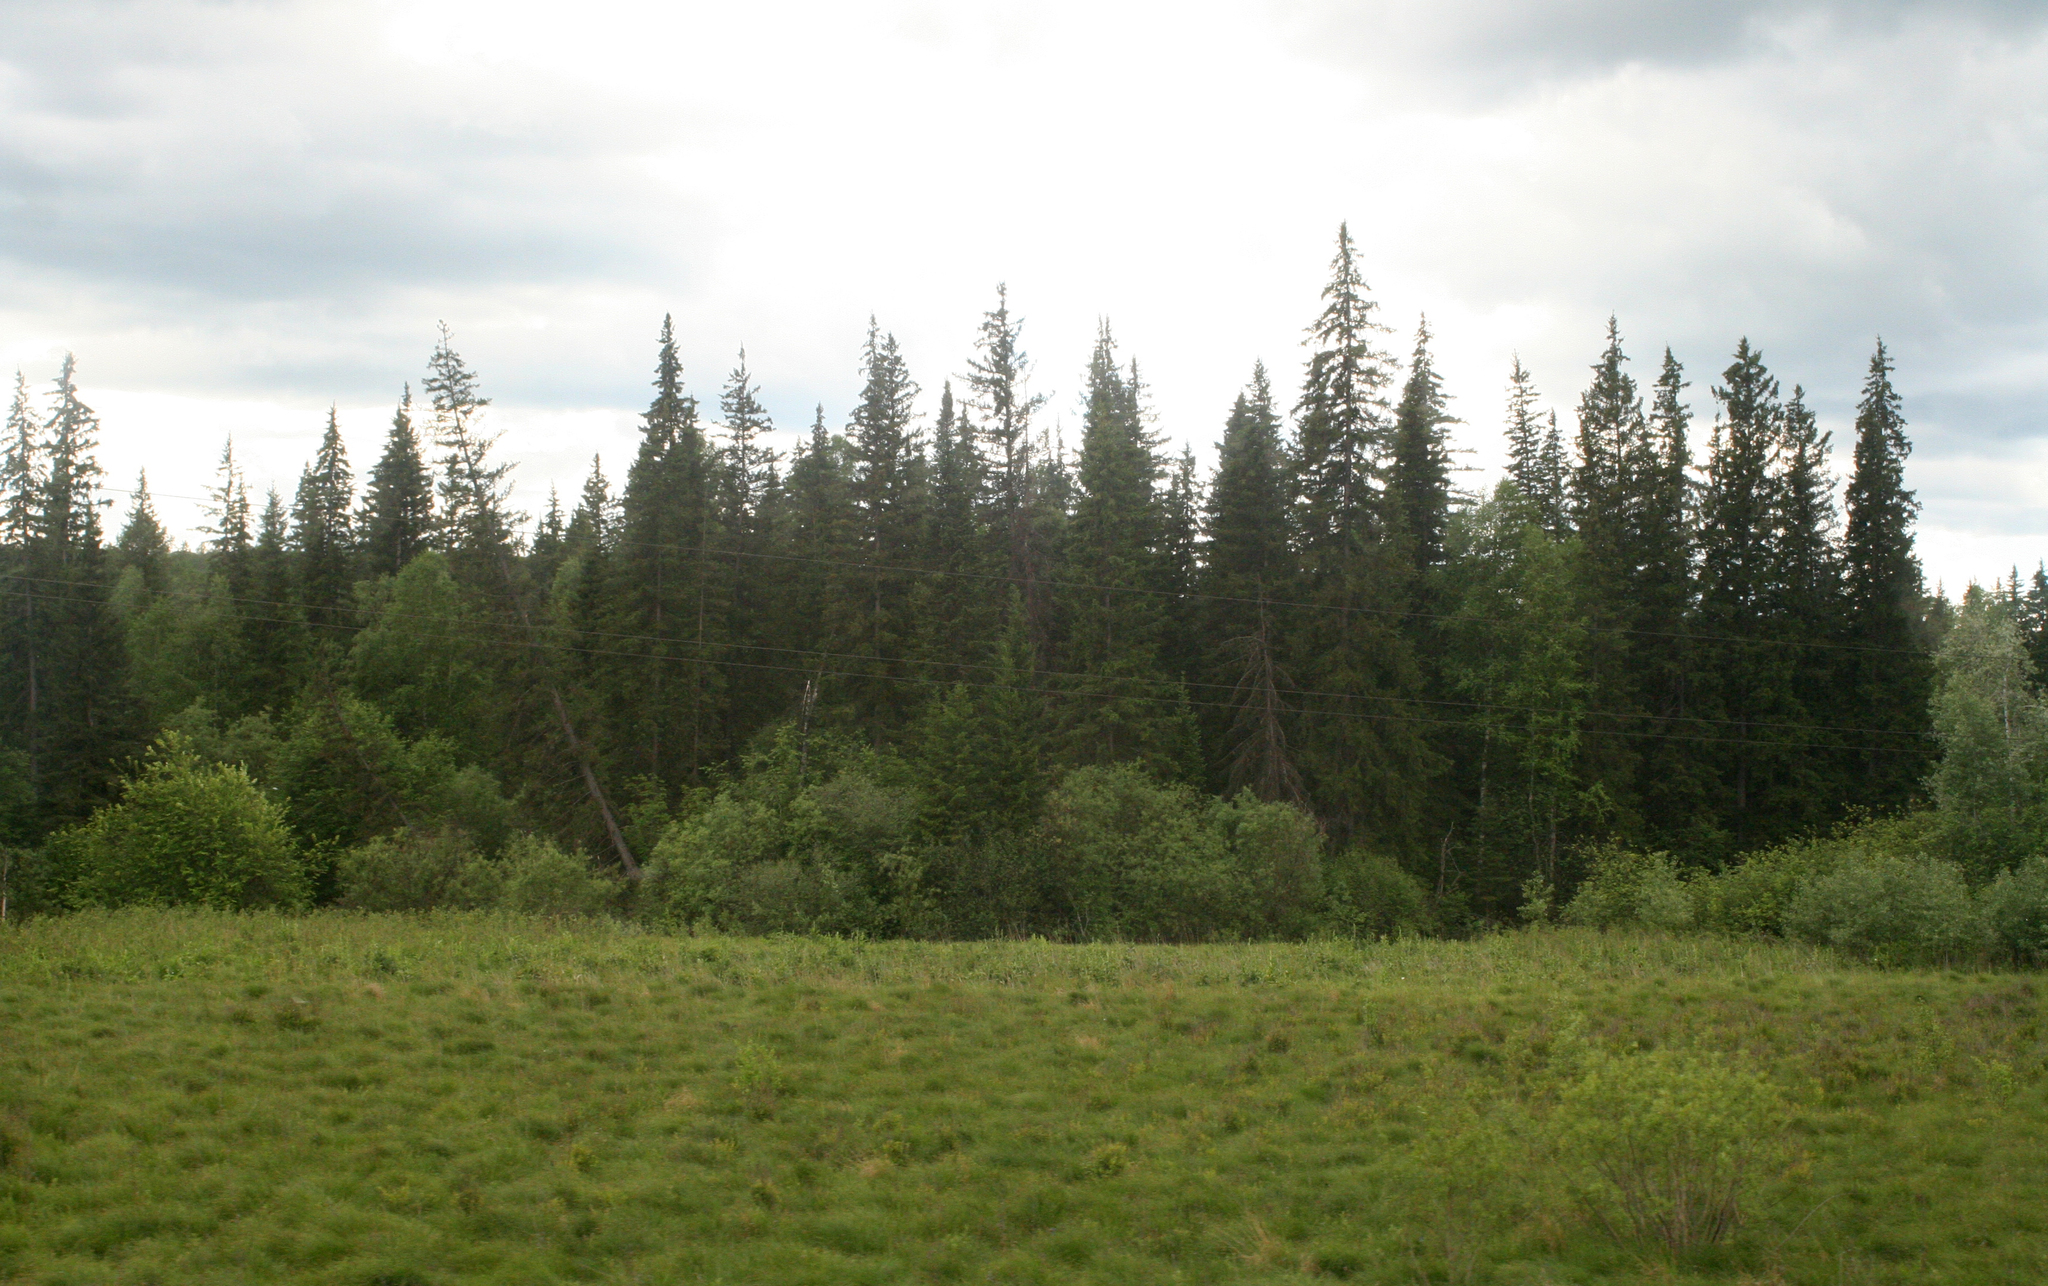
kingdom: Plantae
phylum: Tracheophyta
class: Pinopsida
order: Pinales
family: Pinaceae
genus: Picea
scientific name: Picea obovata
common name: Siberian spruce
